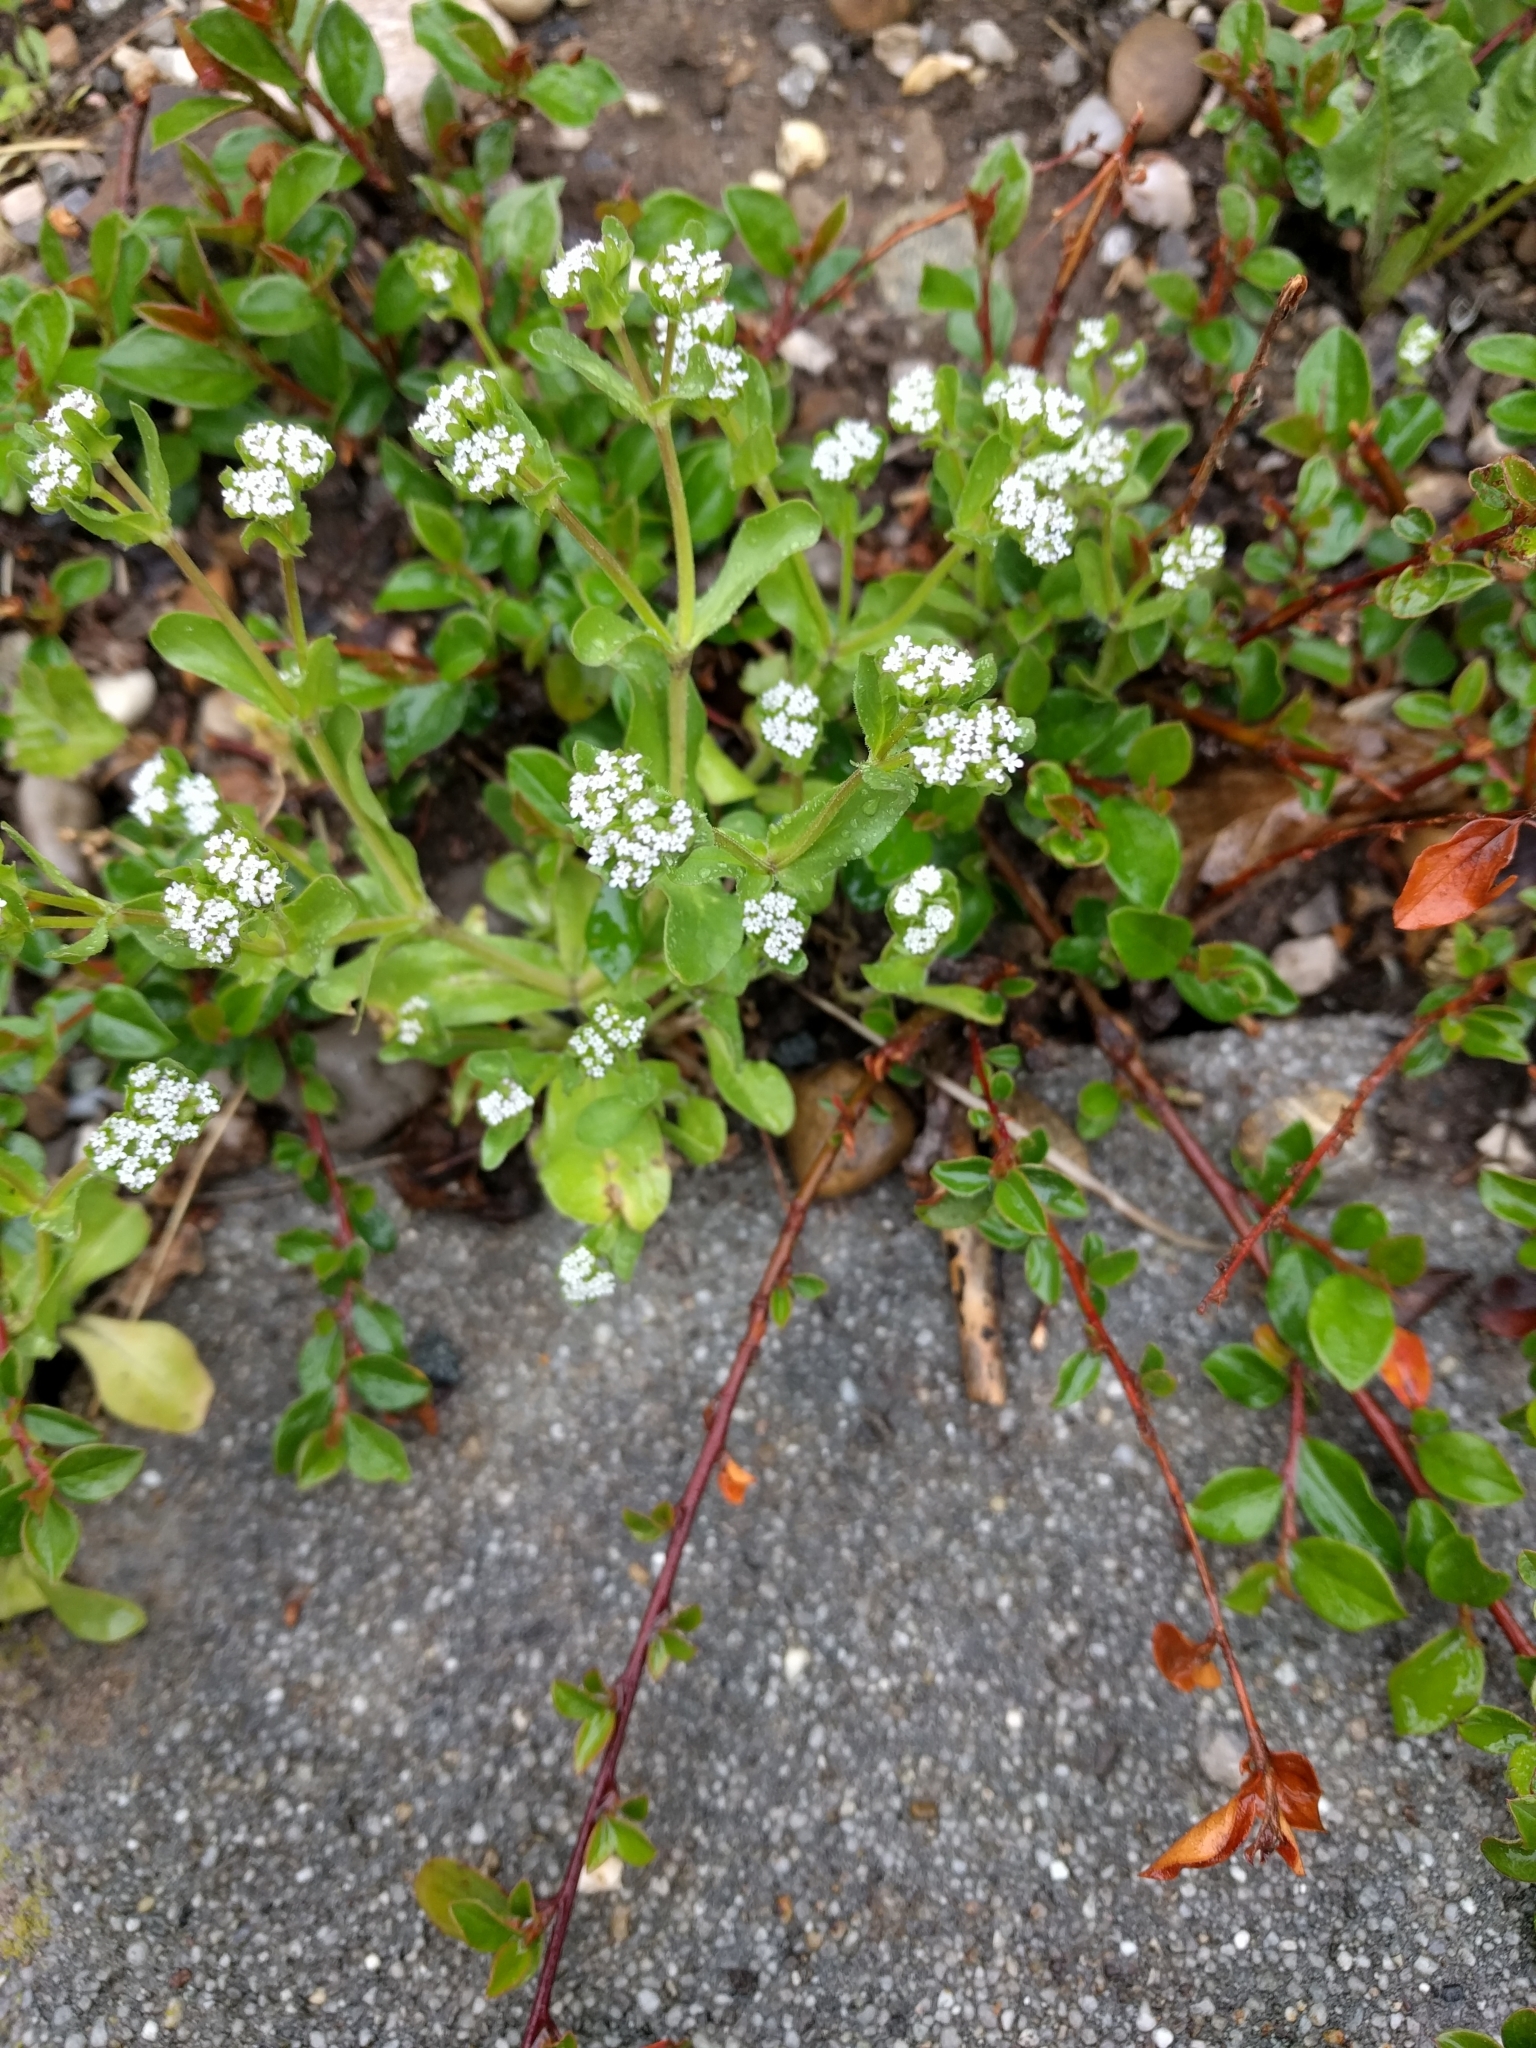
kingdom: Plantae
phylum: Tracheophyta
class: Magnoliopsida
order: Dipsacales
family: Caprifoliaceae
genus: Valerianella
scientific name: Valerianella locusta
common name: Common cornsalad
